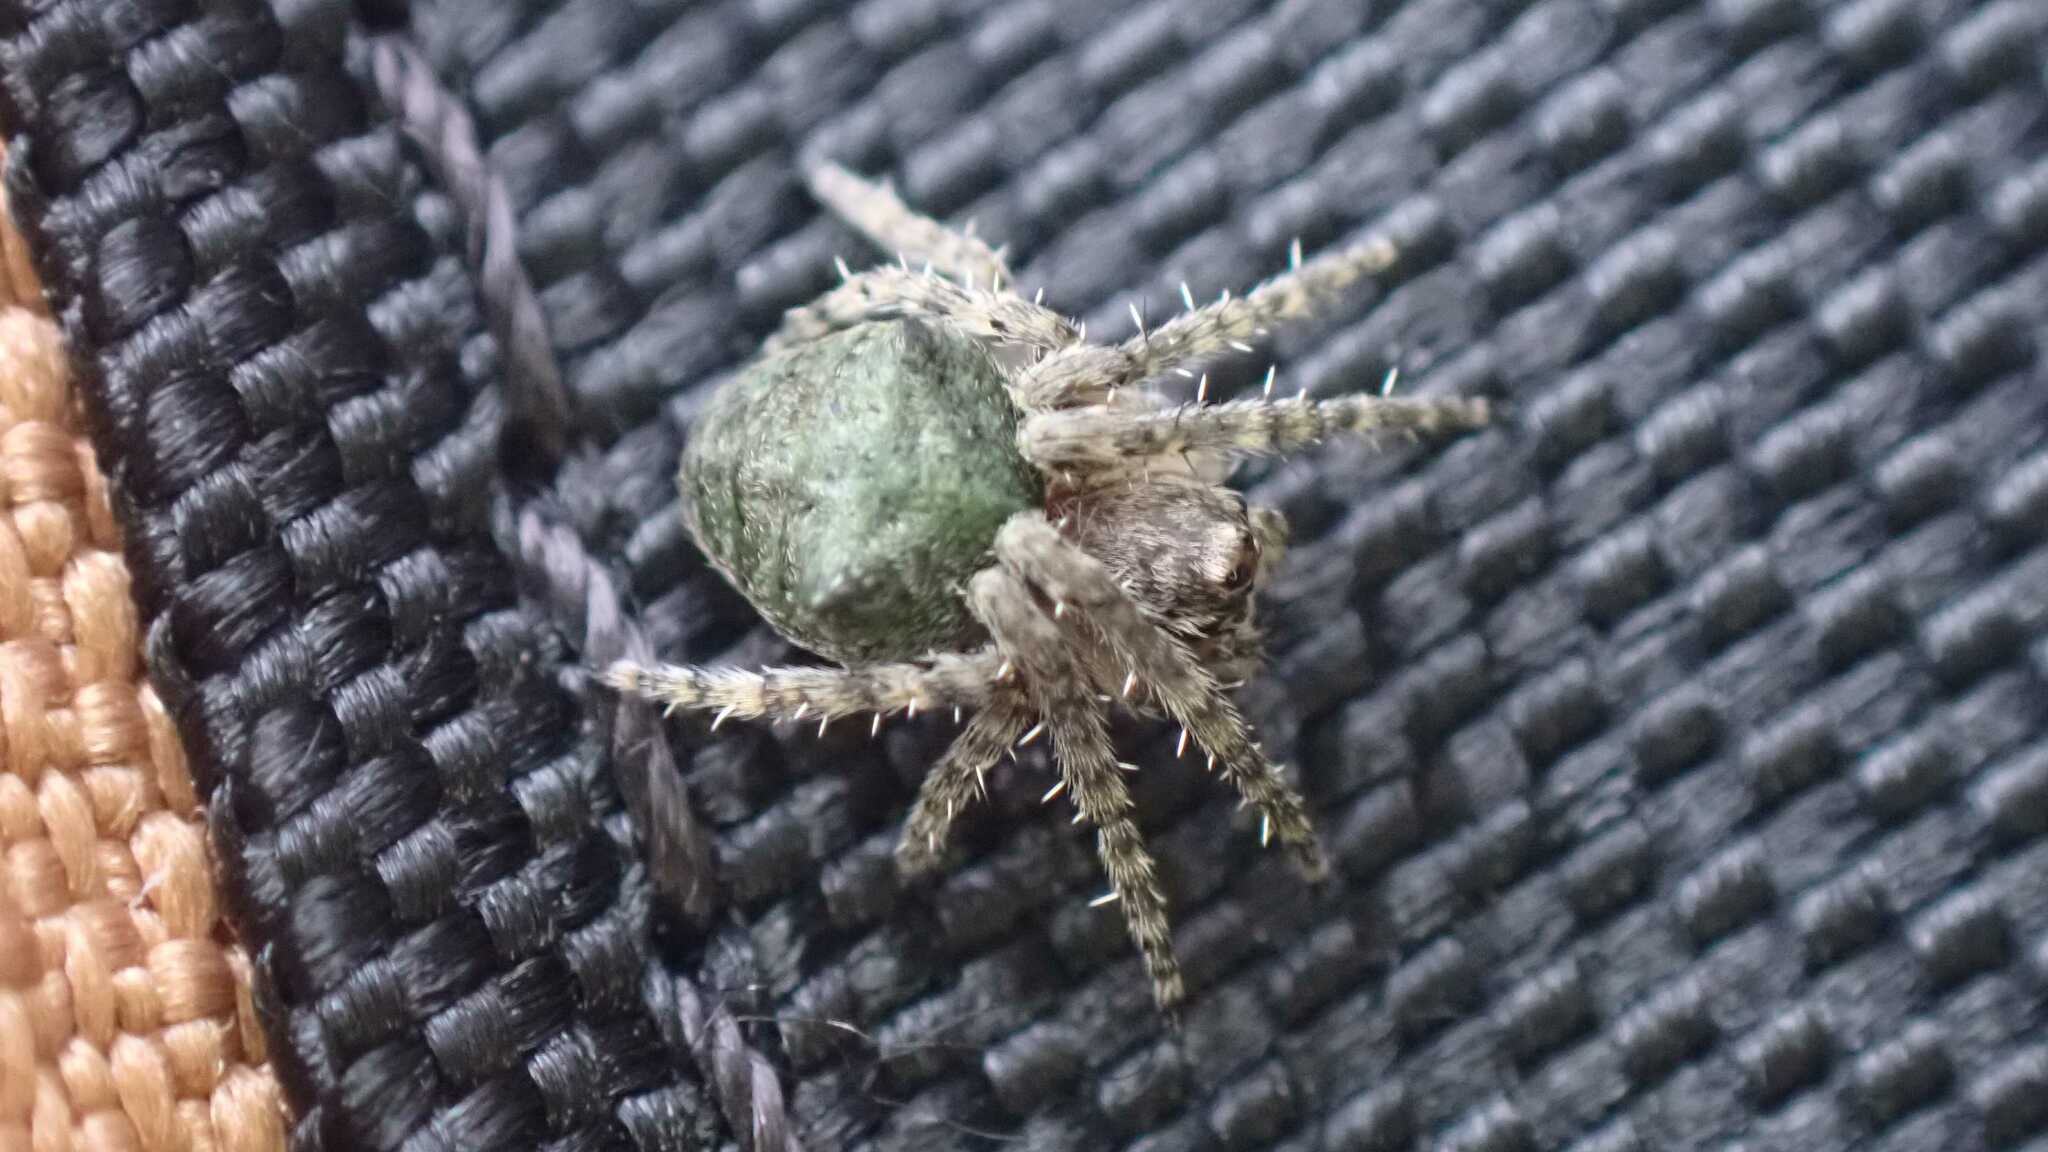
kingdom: Animalia
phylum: Arthropoda
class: Arachnida
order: Araneae
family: Araneidae
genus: Gibbaranea
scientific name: Gibbaranea gibbosa
